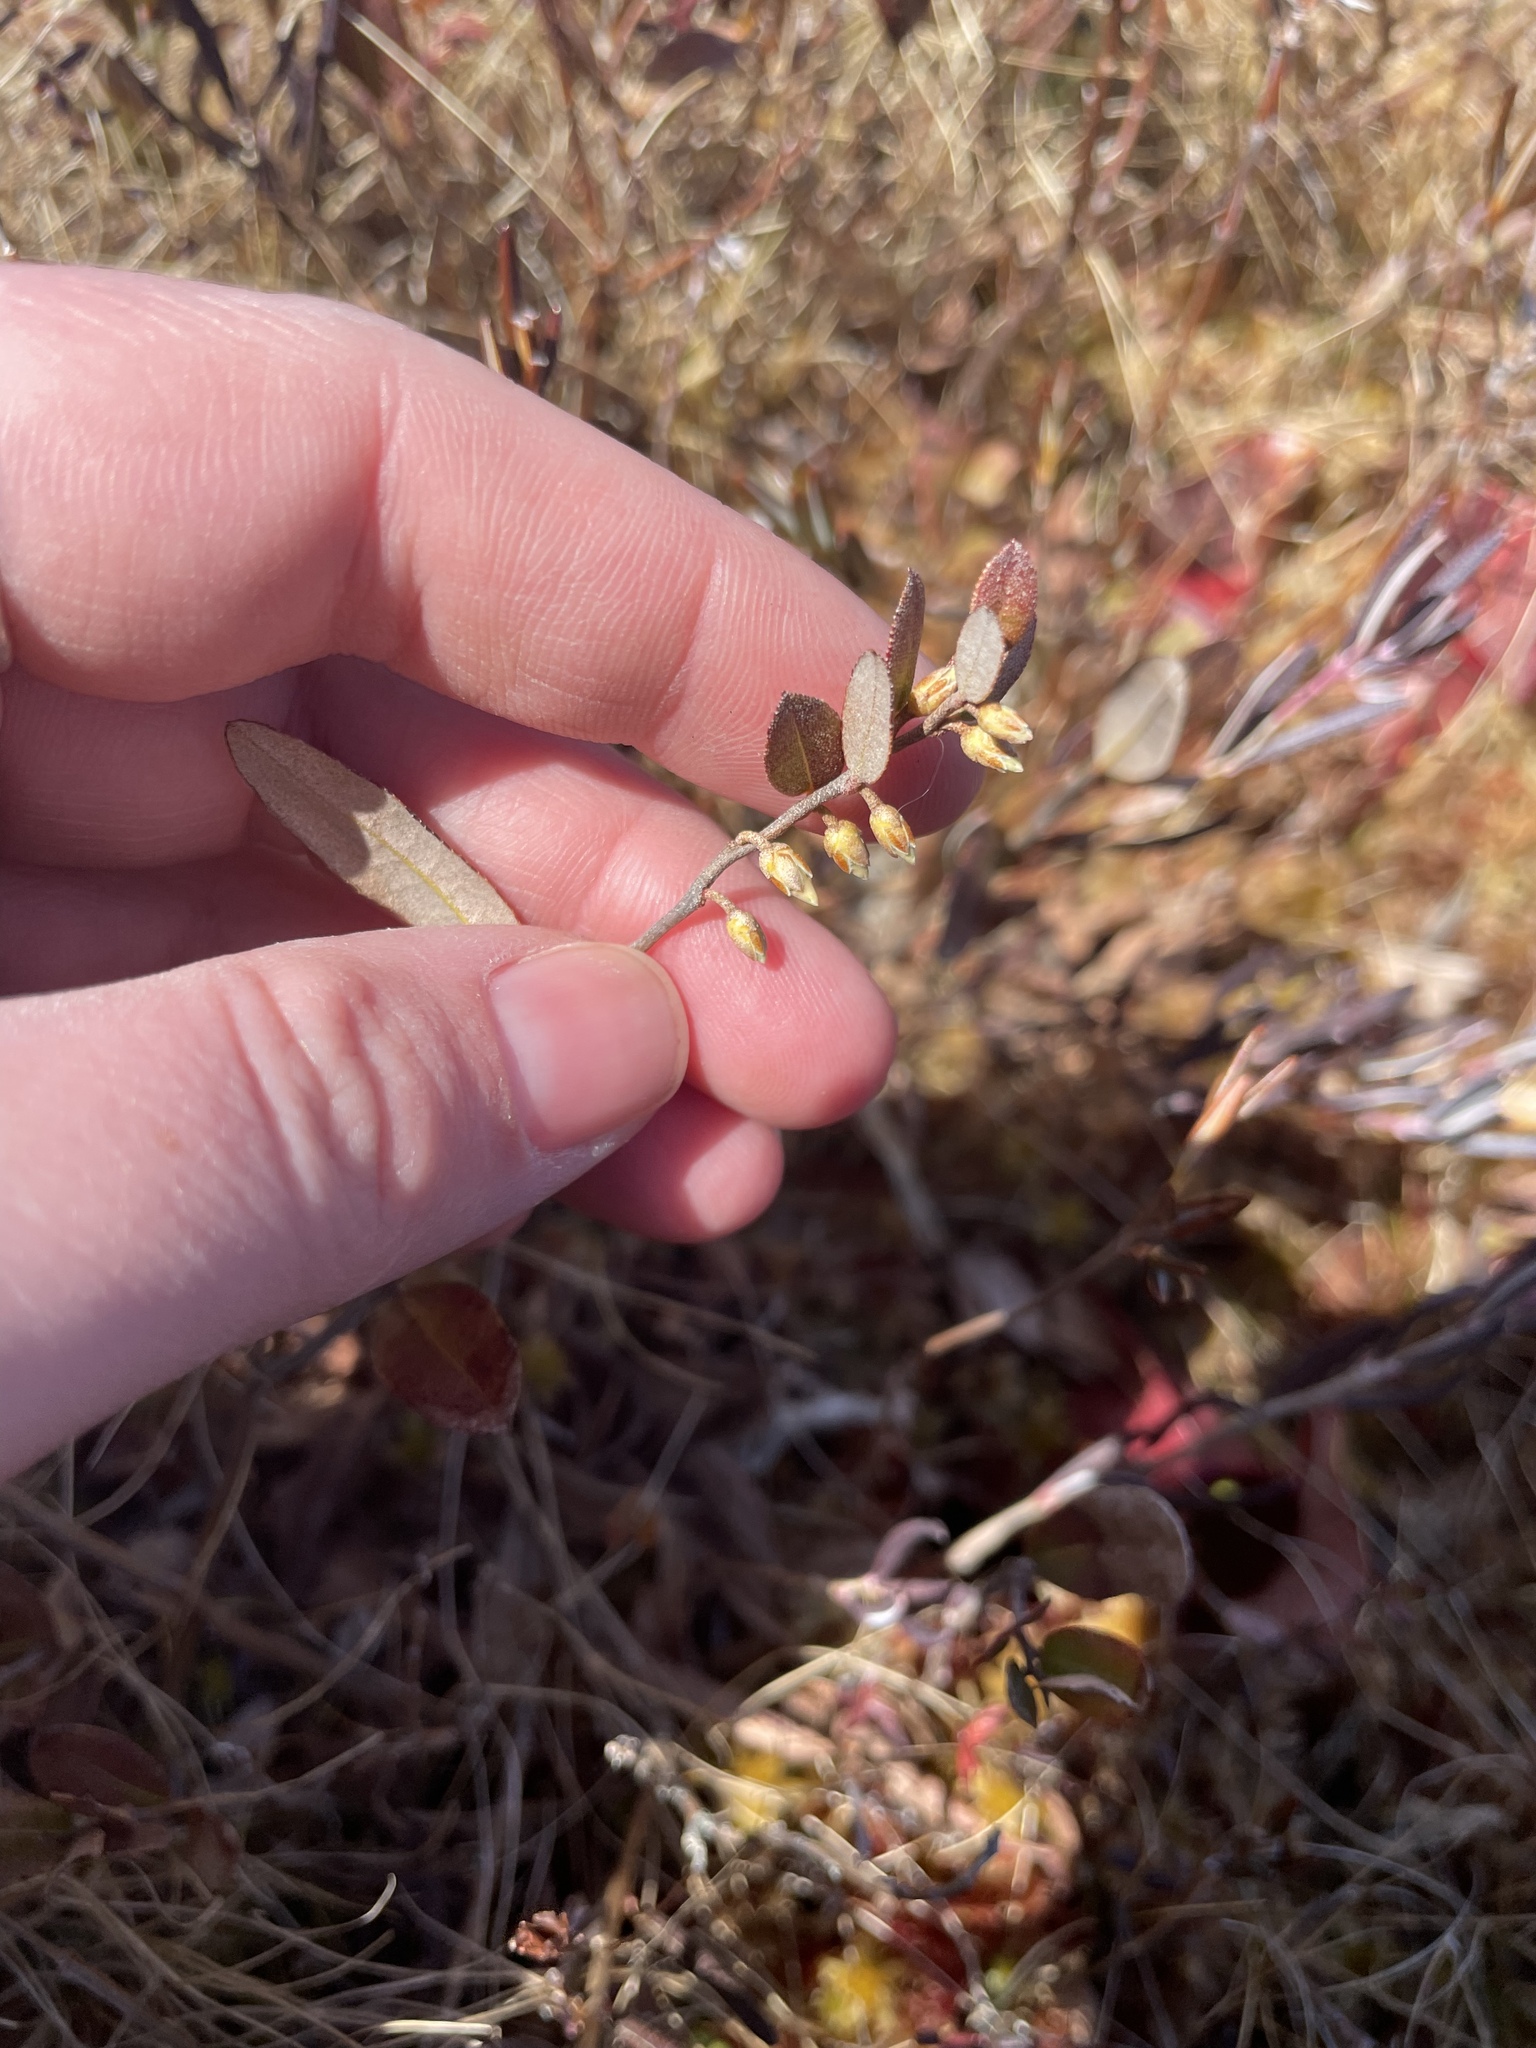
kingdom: Plantae
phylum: Tracheophyta
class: Magnoliopsida
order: Ericales
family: Ericaceae
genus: Chamaedaphne
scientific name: Chamaedaphne calyculata
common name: Leatherleaf
